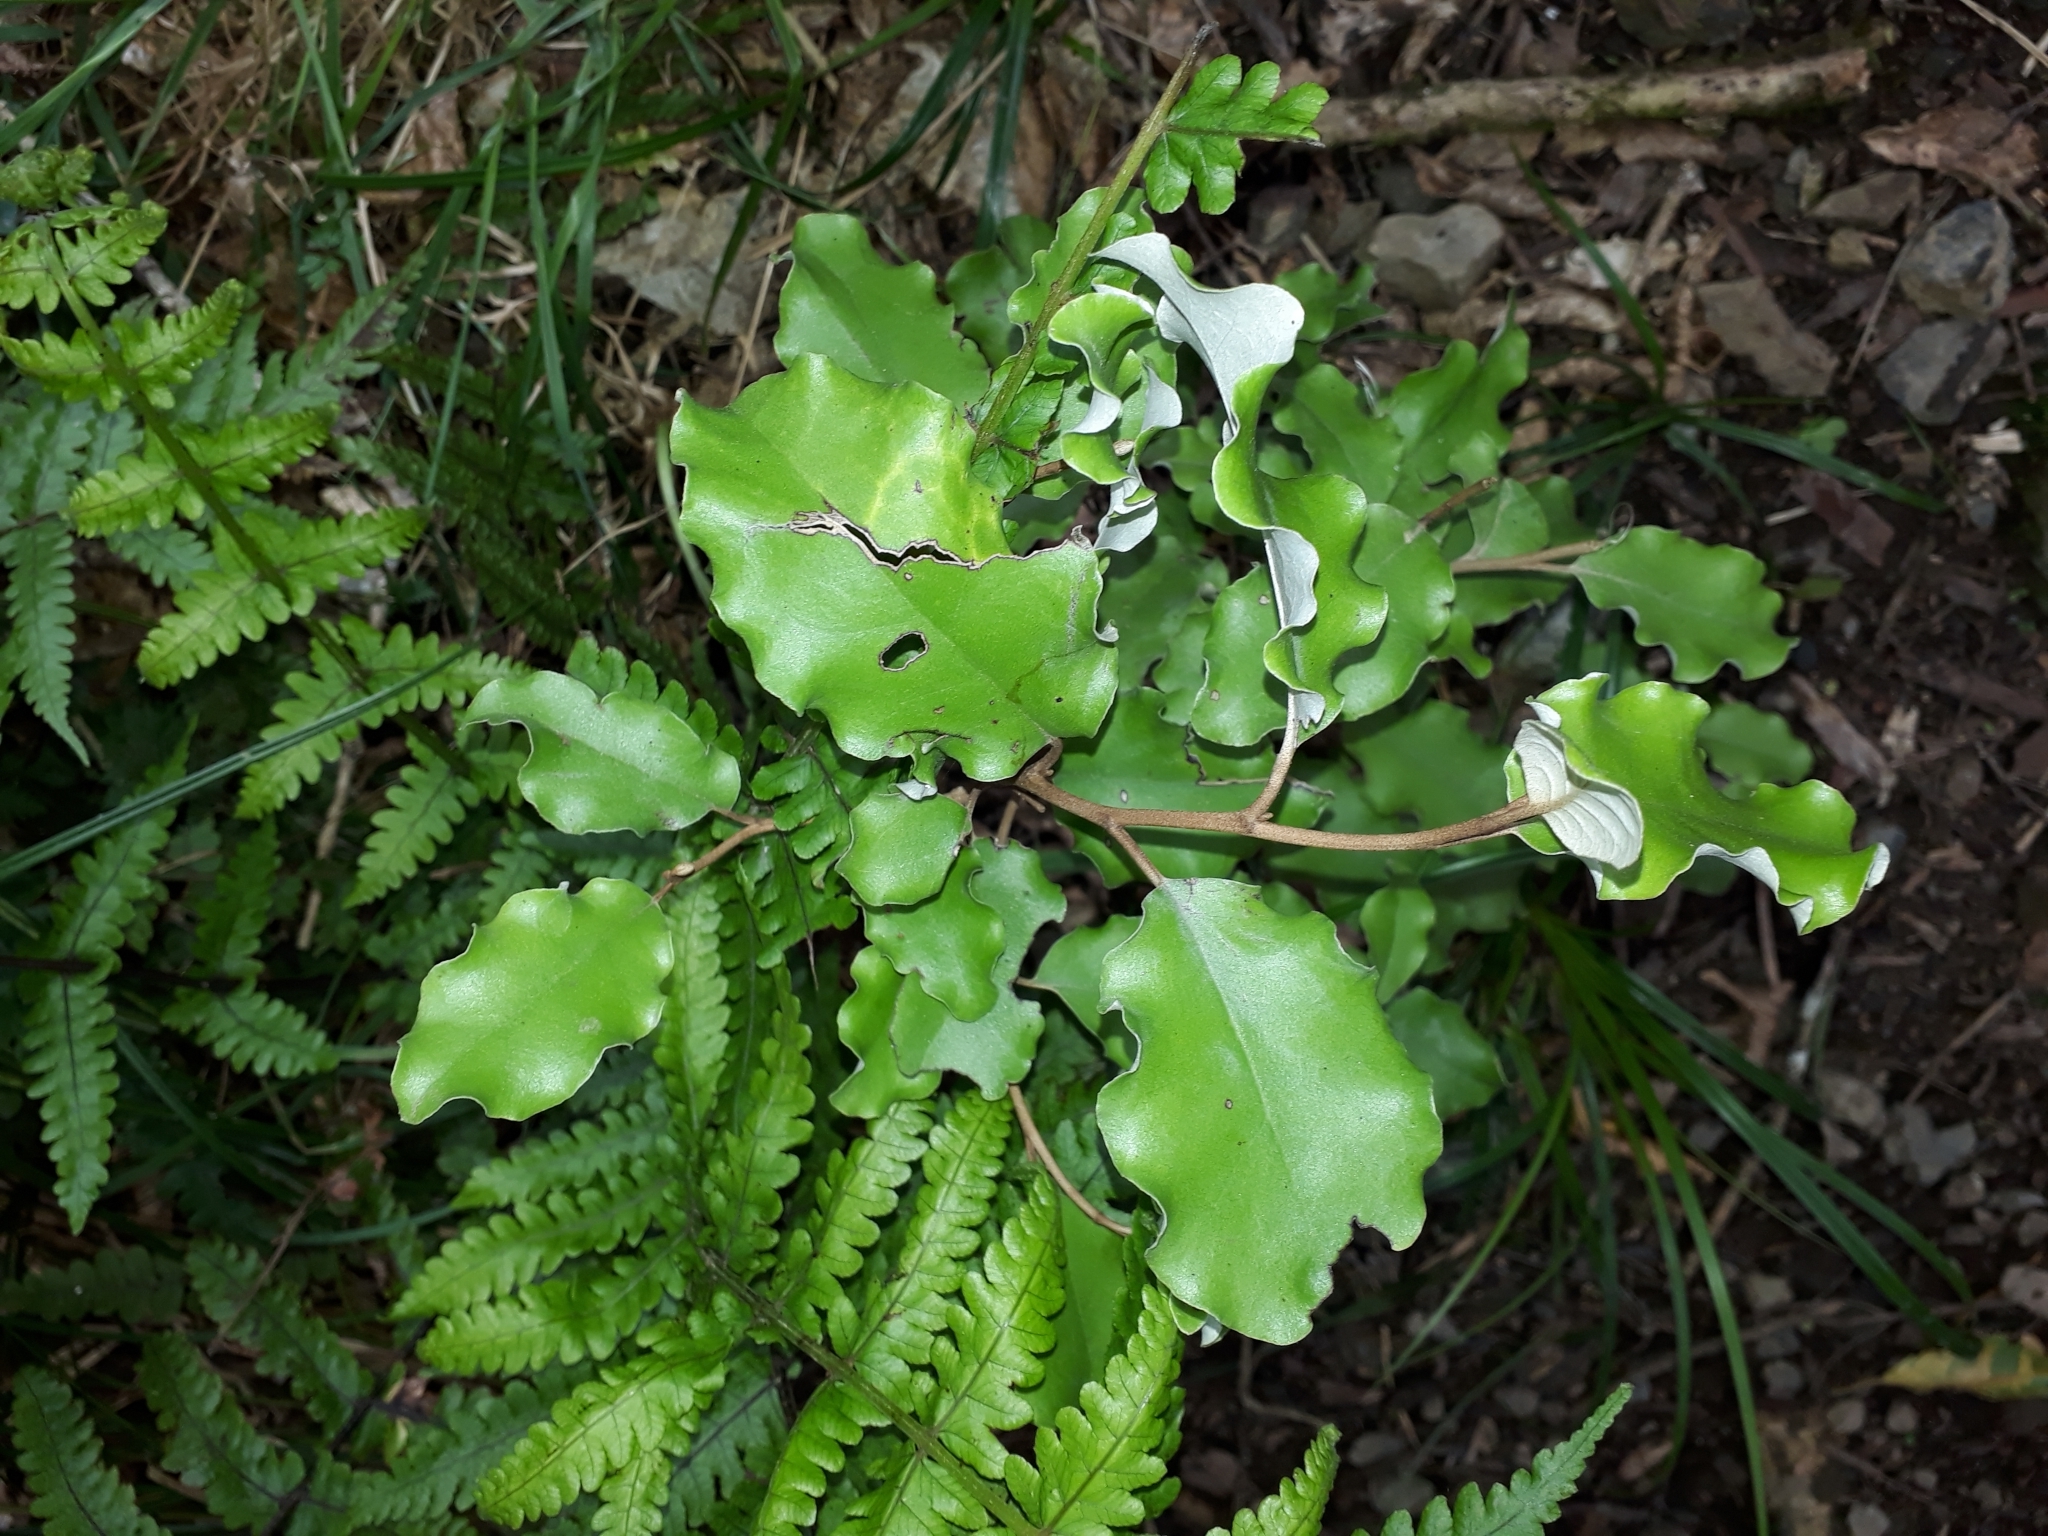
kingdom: Plantae
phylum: Tracheophyta
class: Magnoliopsida
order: Asterales
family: Asteraceae
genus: Olearia
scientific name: Olearia paniculata
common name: Akiraho
